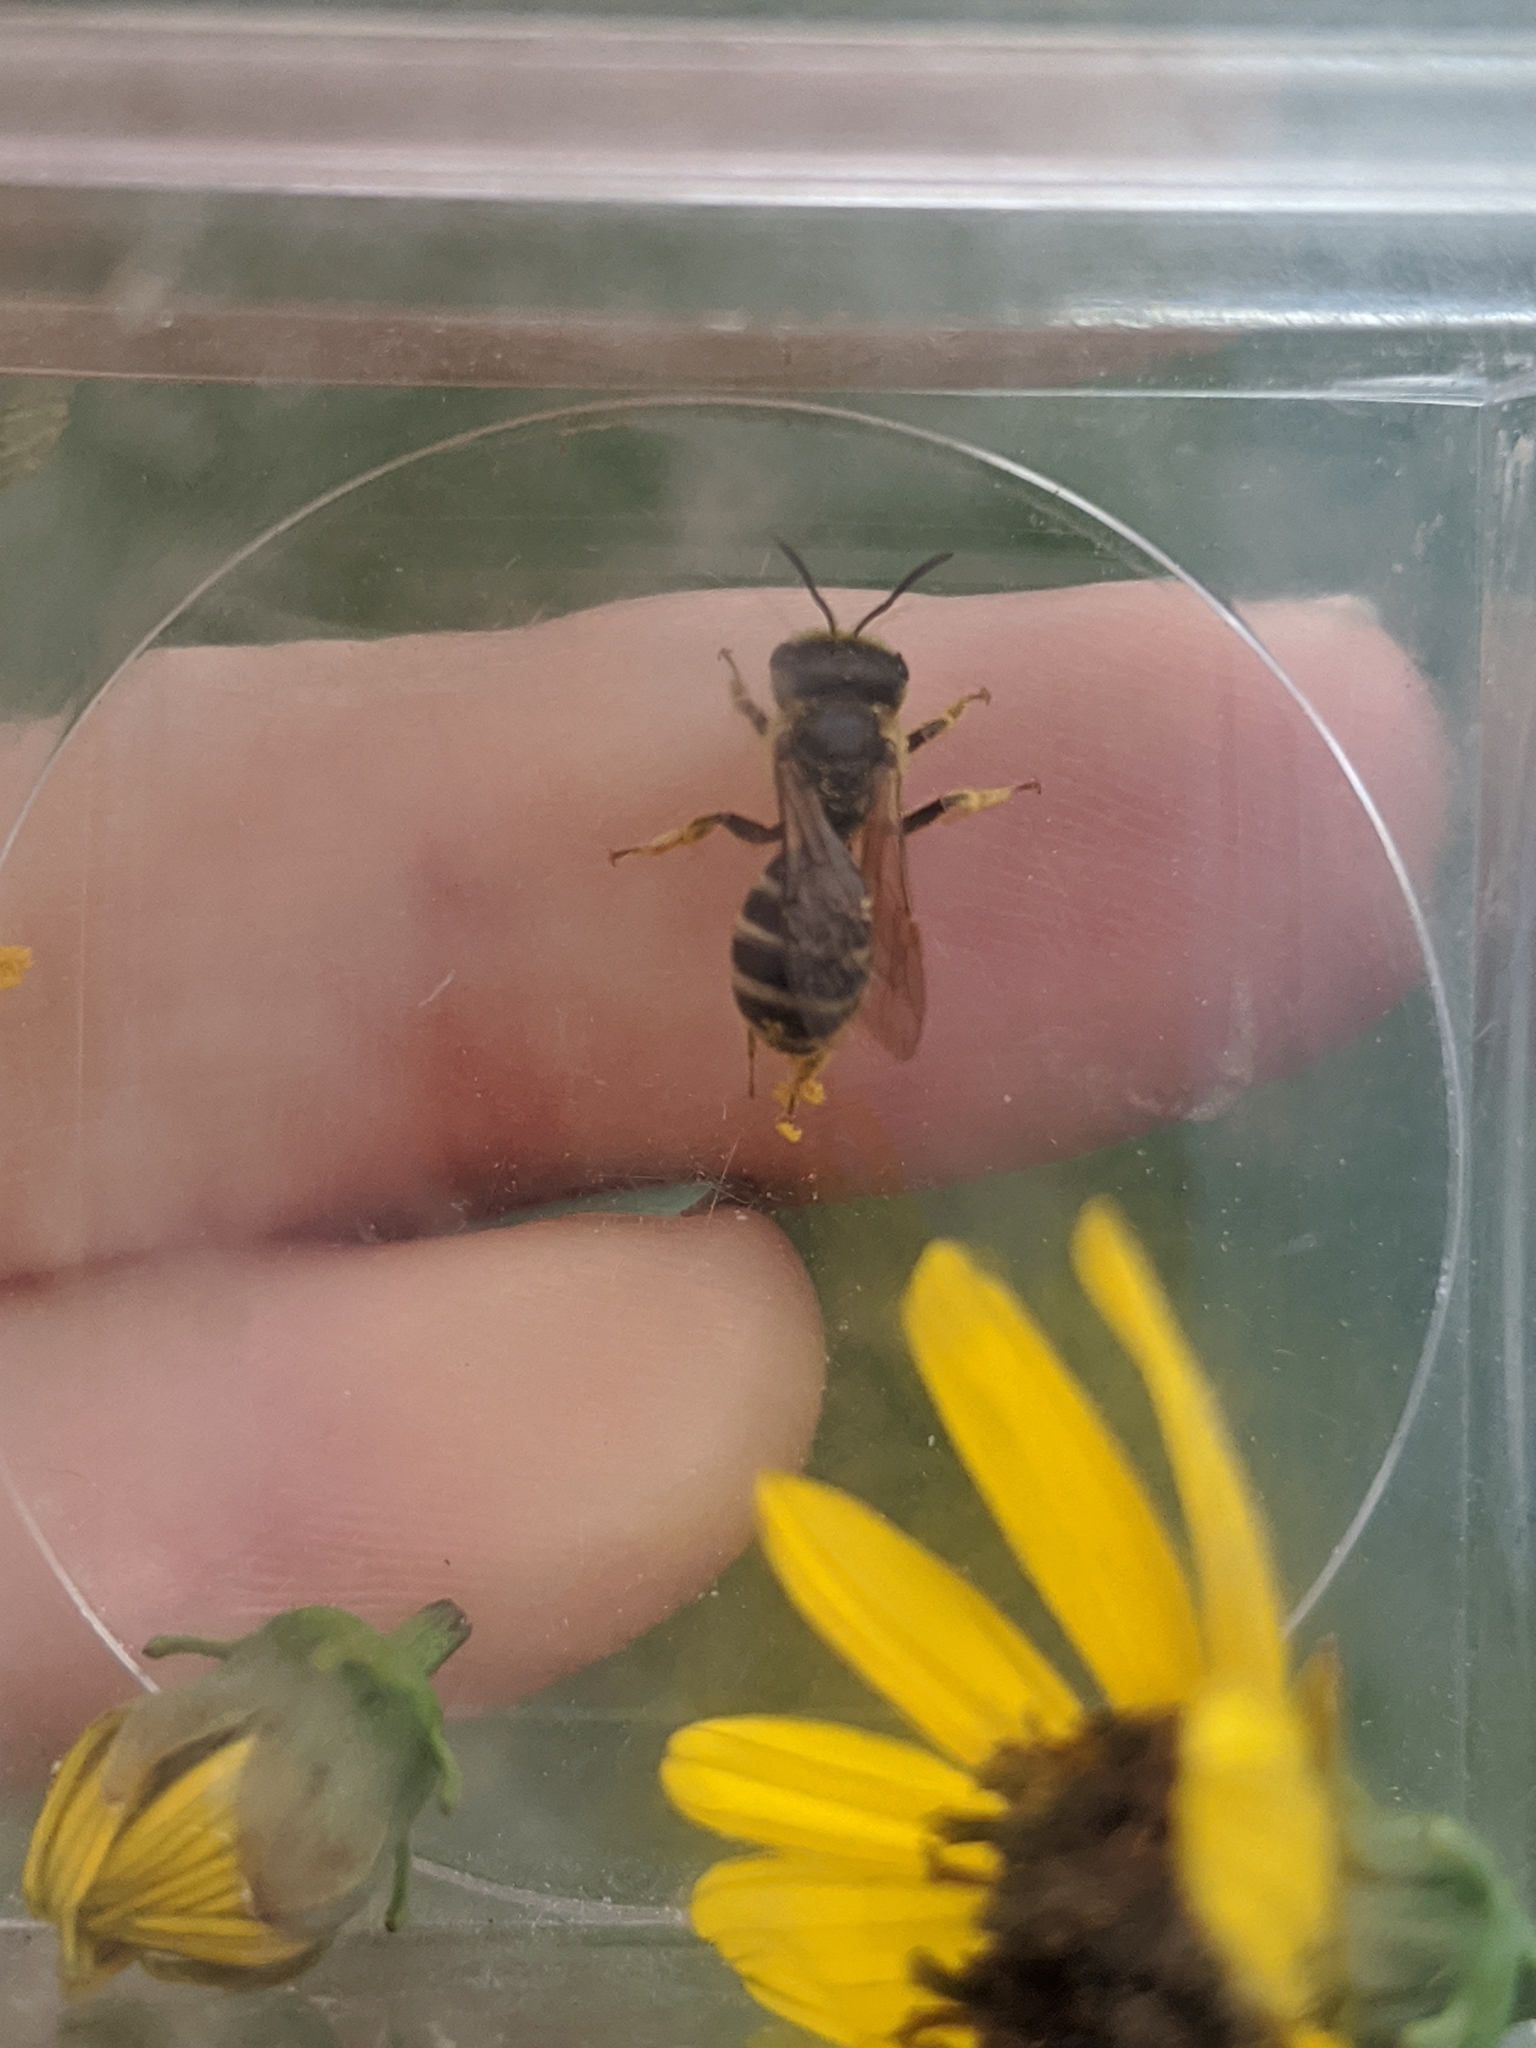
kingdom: Animalia
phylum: Arthropoda
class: Insecta
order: Hymenoptera
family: Halictidae
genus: Halictus
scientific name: Halictus ligatus
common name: Ligated furrow bee
